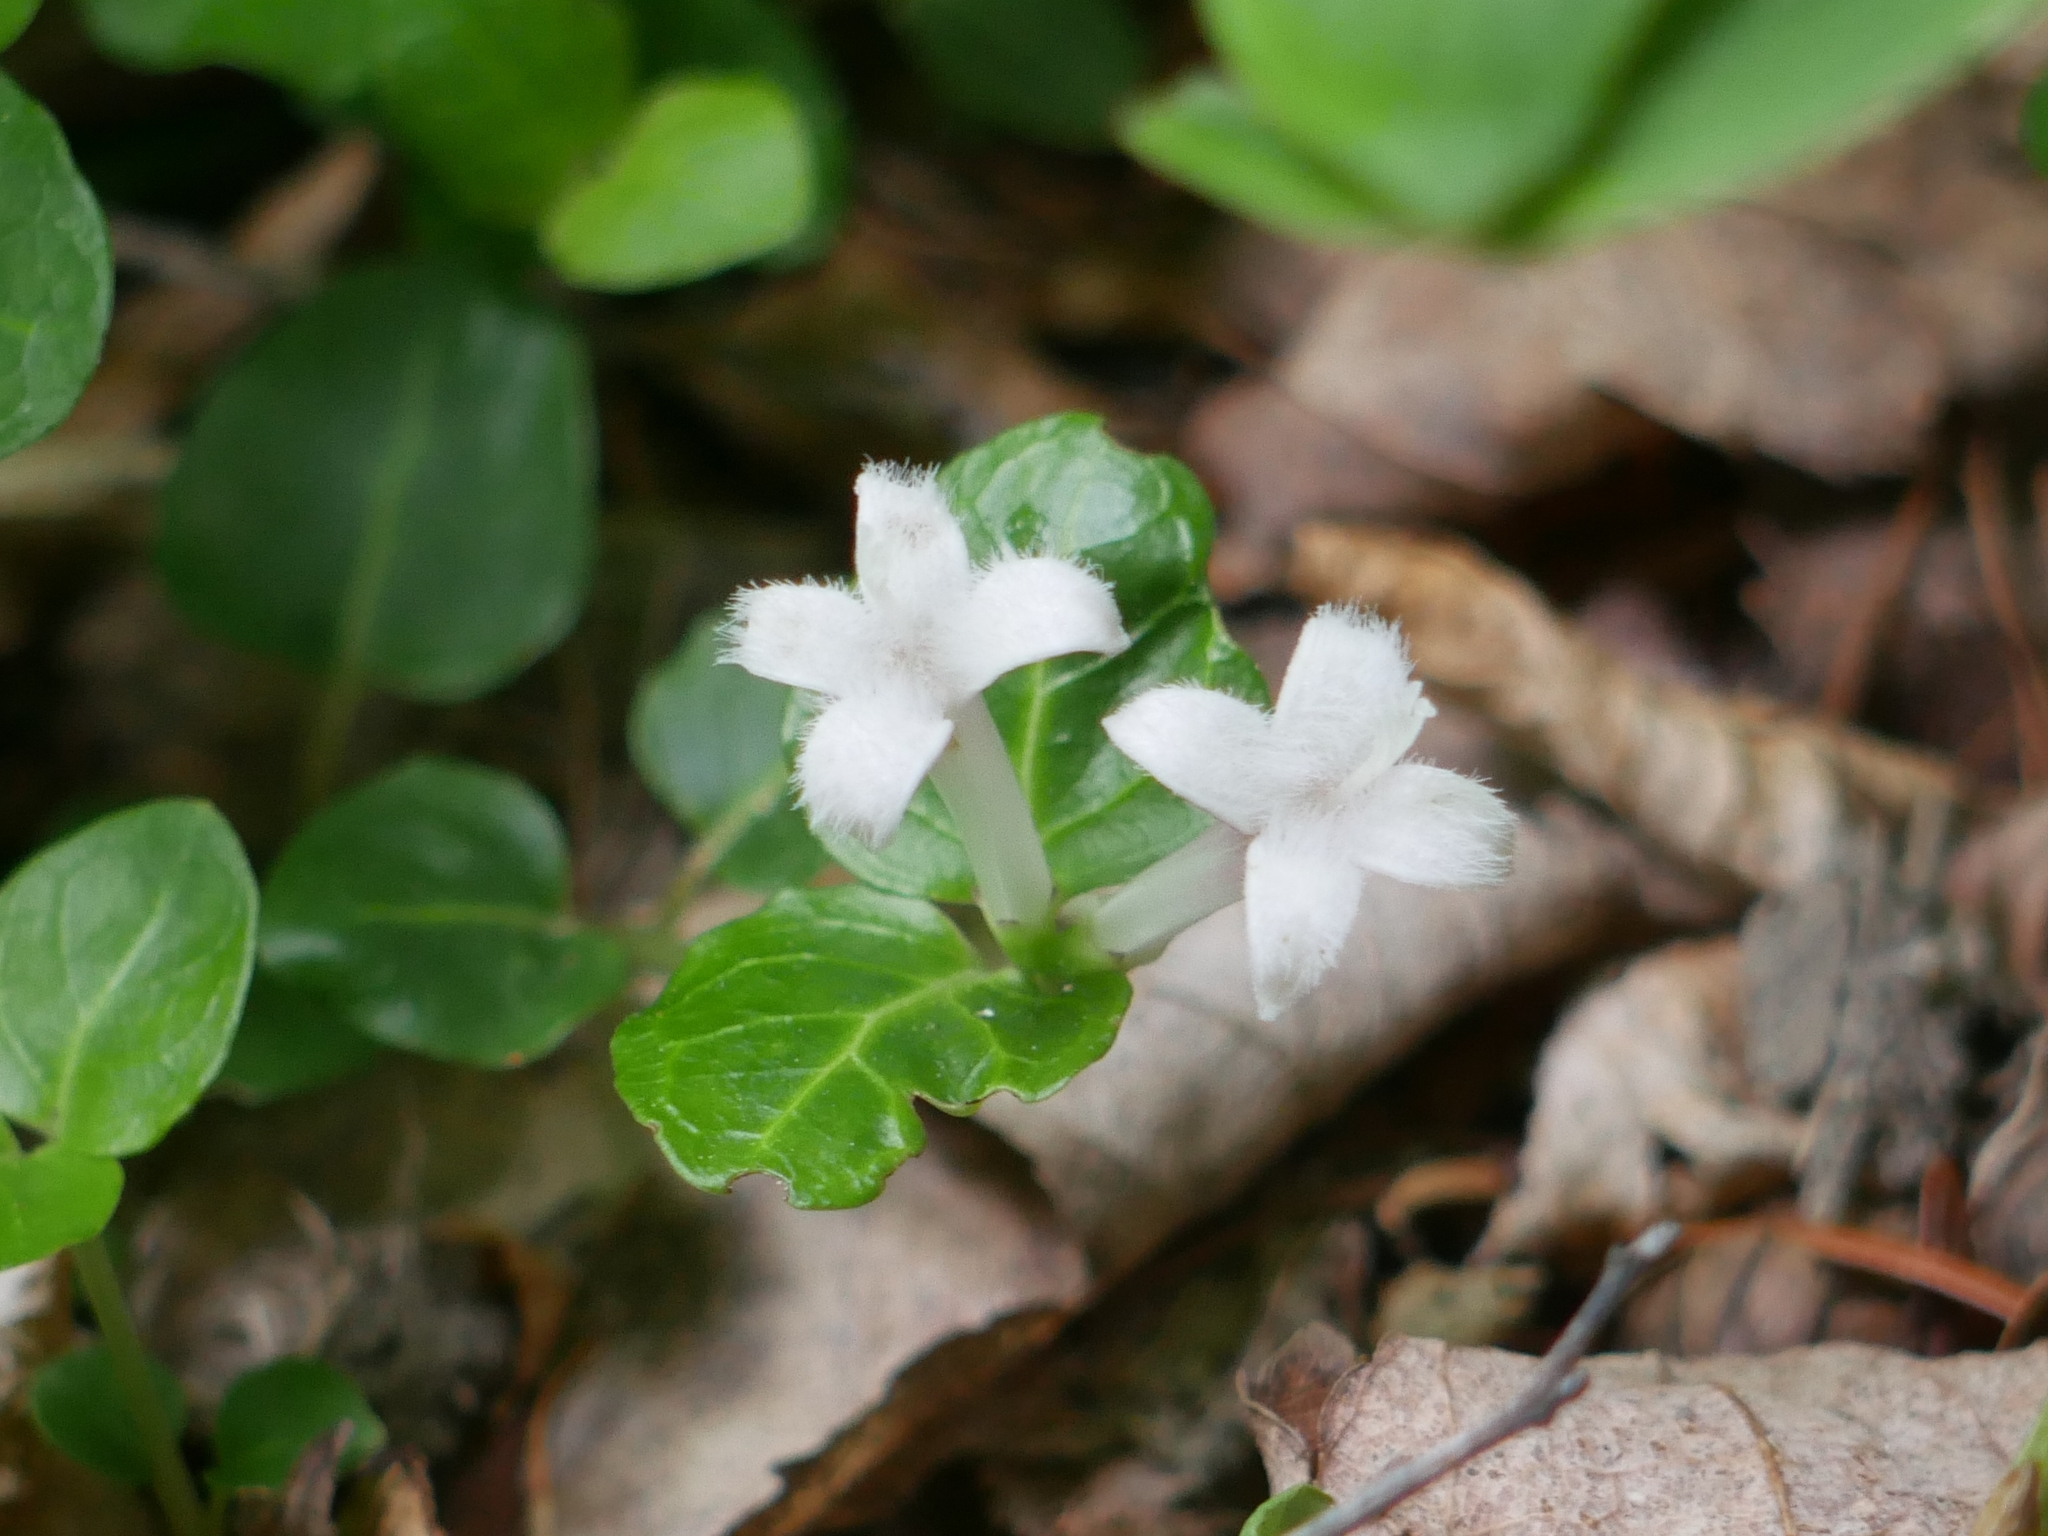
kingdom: Plantae
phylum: Tracheophyta
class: Magnoliopsida
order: Gentianales
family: Rubiaceae
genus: Mitchella
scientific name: Mitchella repens
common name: Partridge-berry
